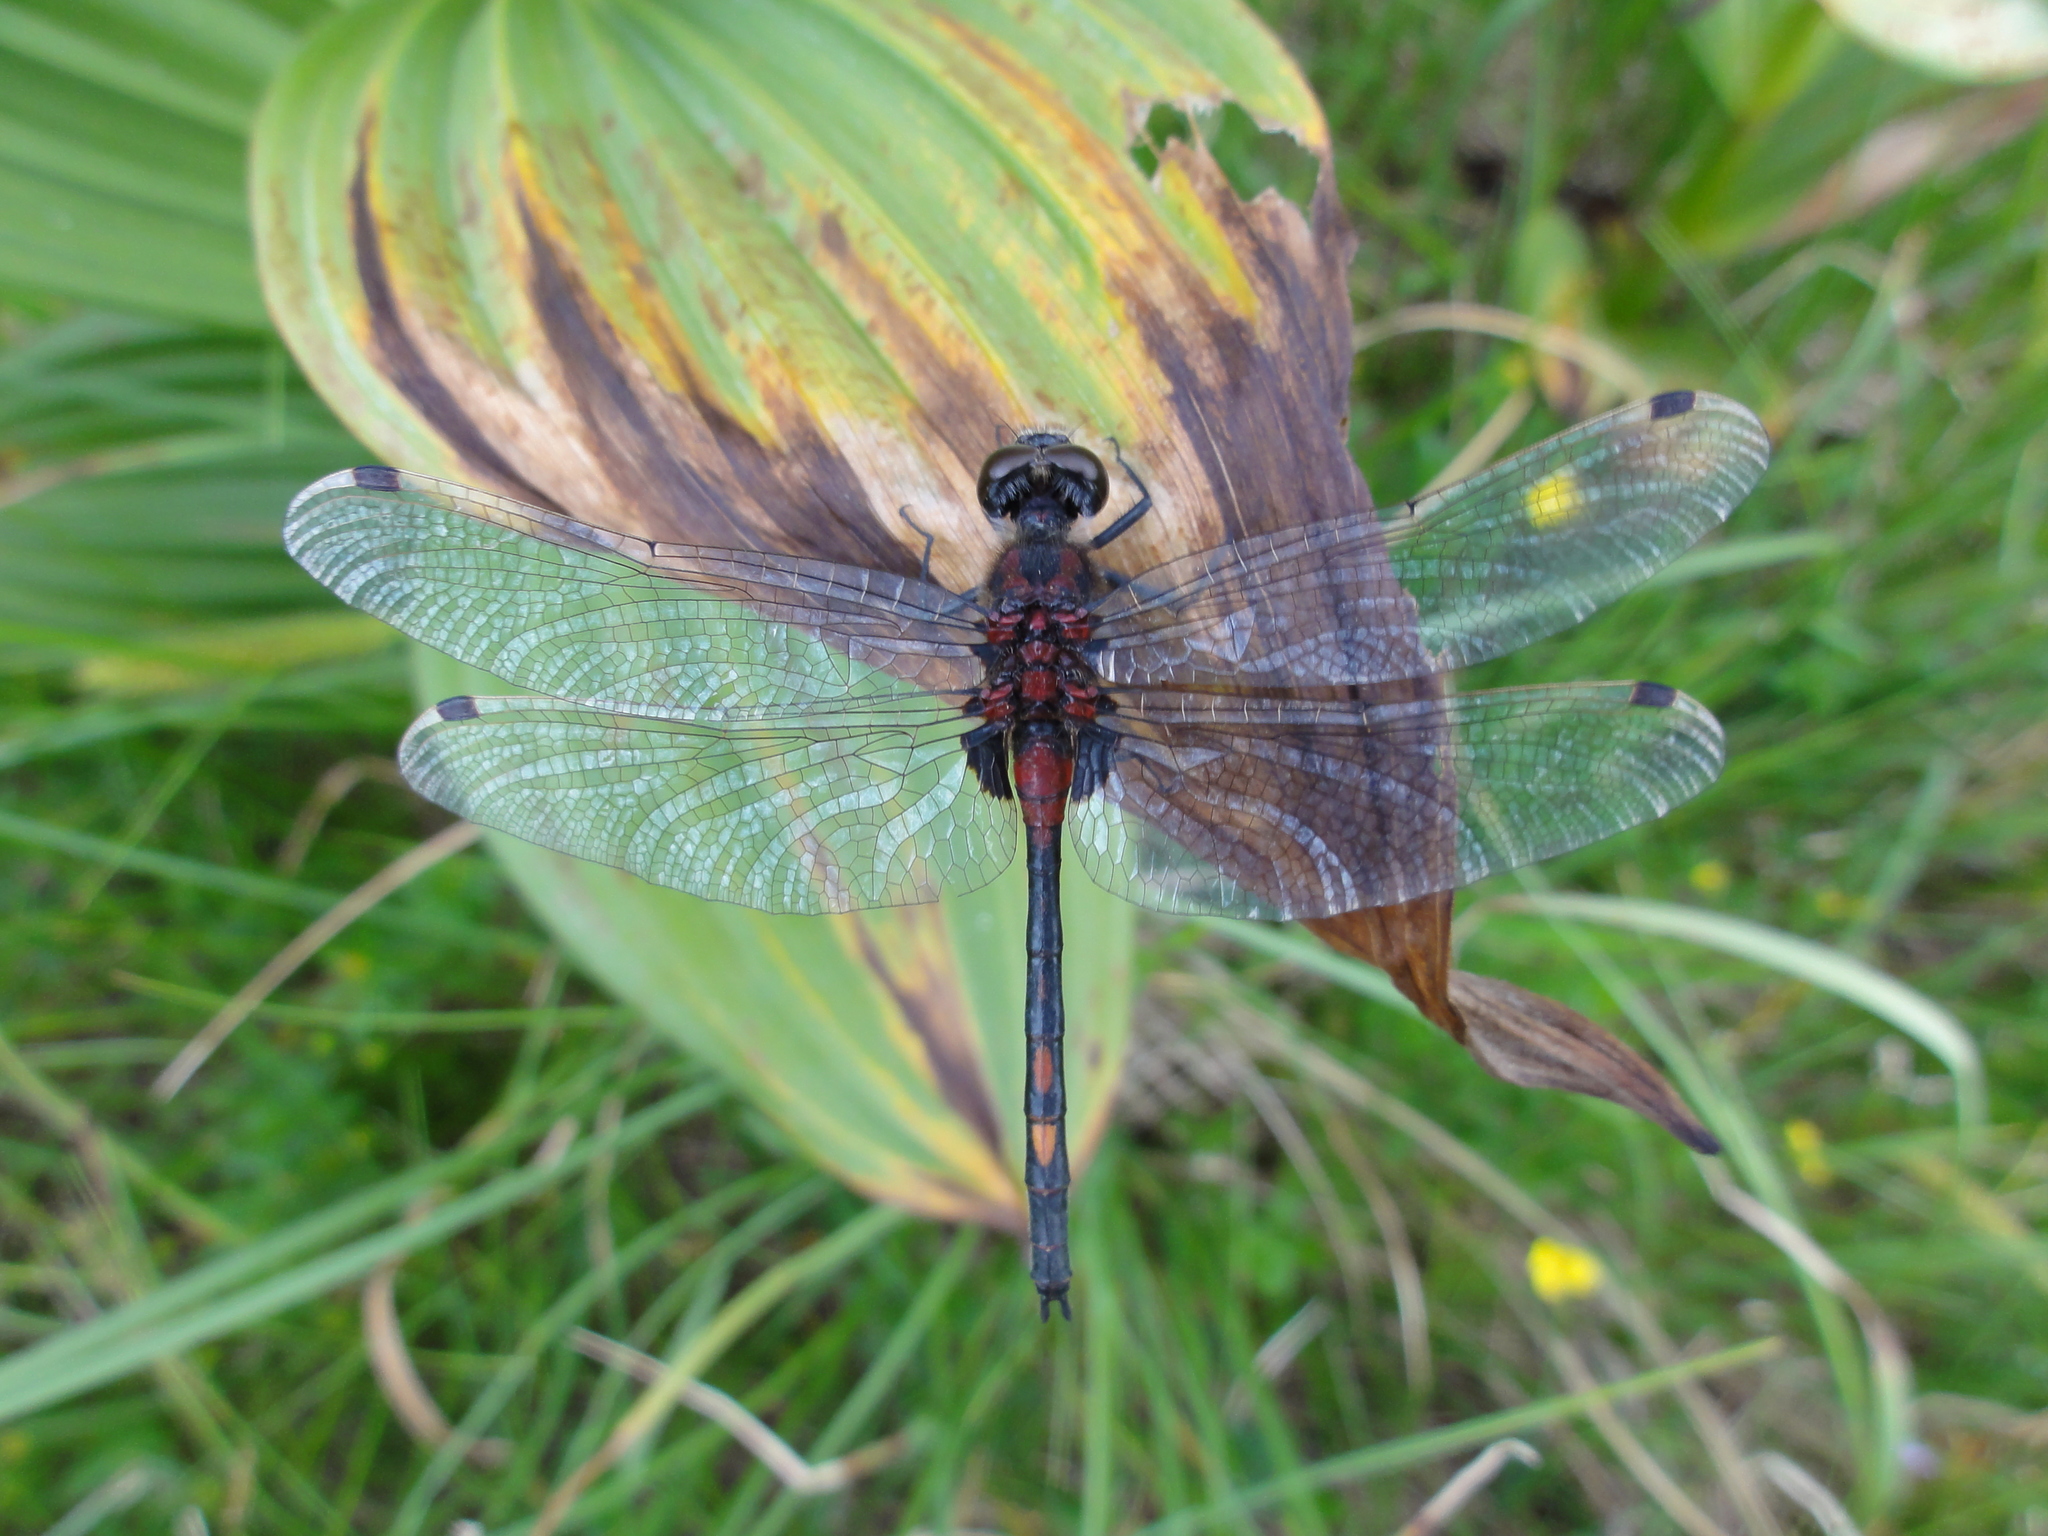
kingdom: Animalia
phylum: Arthropoda
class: Insecta
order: Odonata
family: Libellulidae
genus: Leucorrhinia
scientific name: Leucorrhinia dubia
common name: White-faced darter
